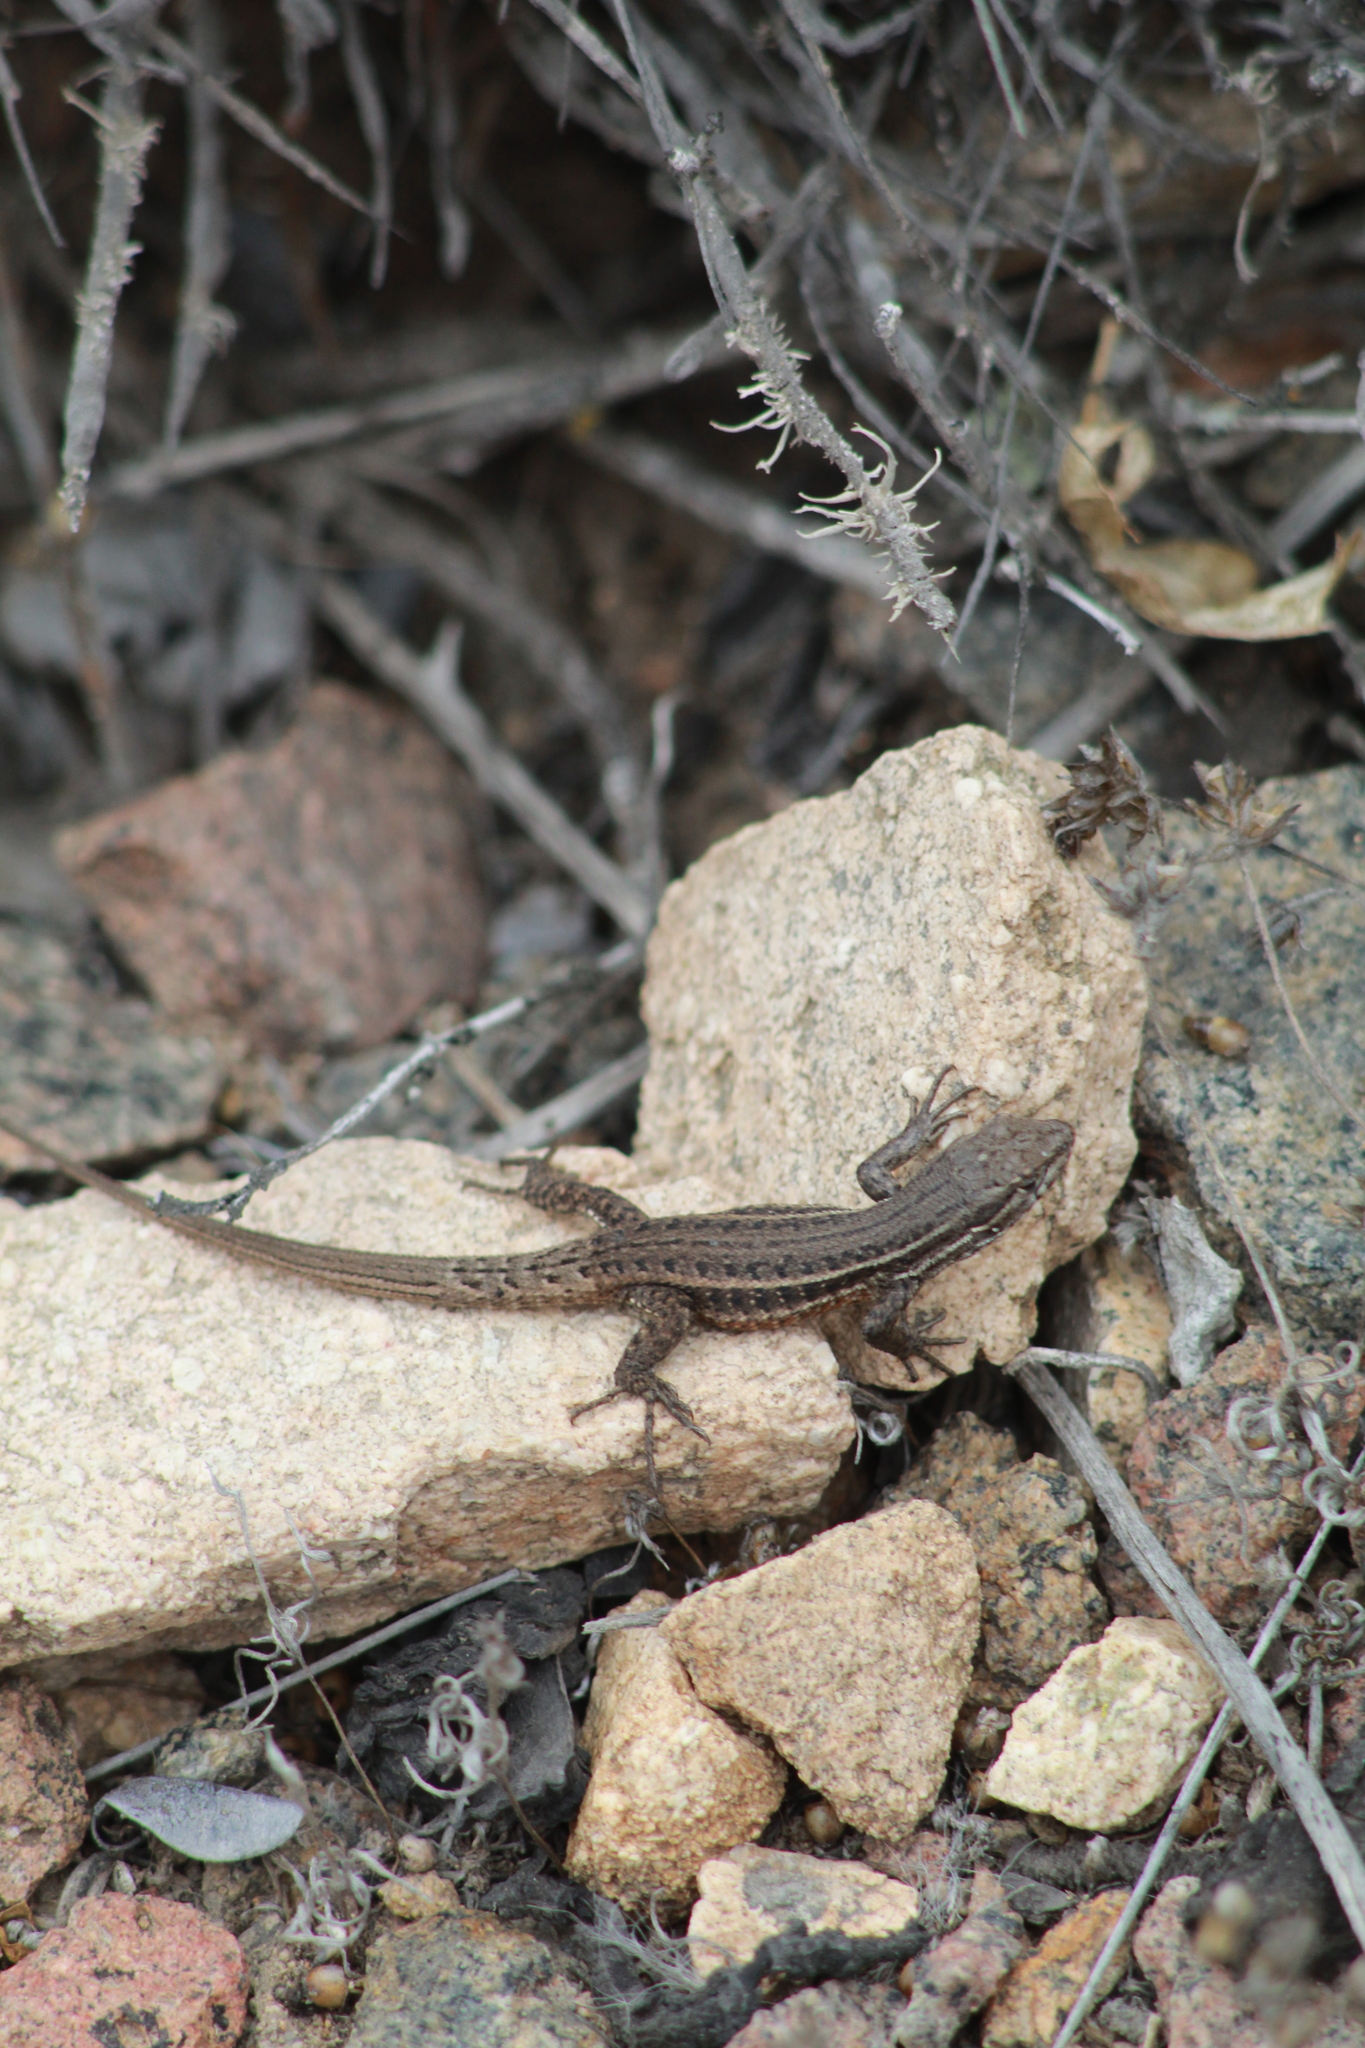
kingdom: Animalia
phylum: Chordata
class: Squamata
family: Liolaemidae
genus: Liolaemus
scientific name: Liolaemus fuscus
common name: Brown tree iguana
